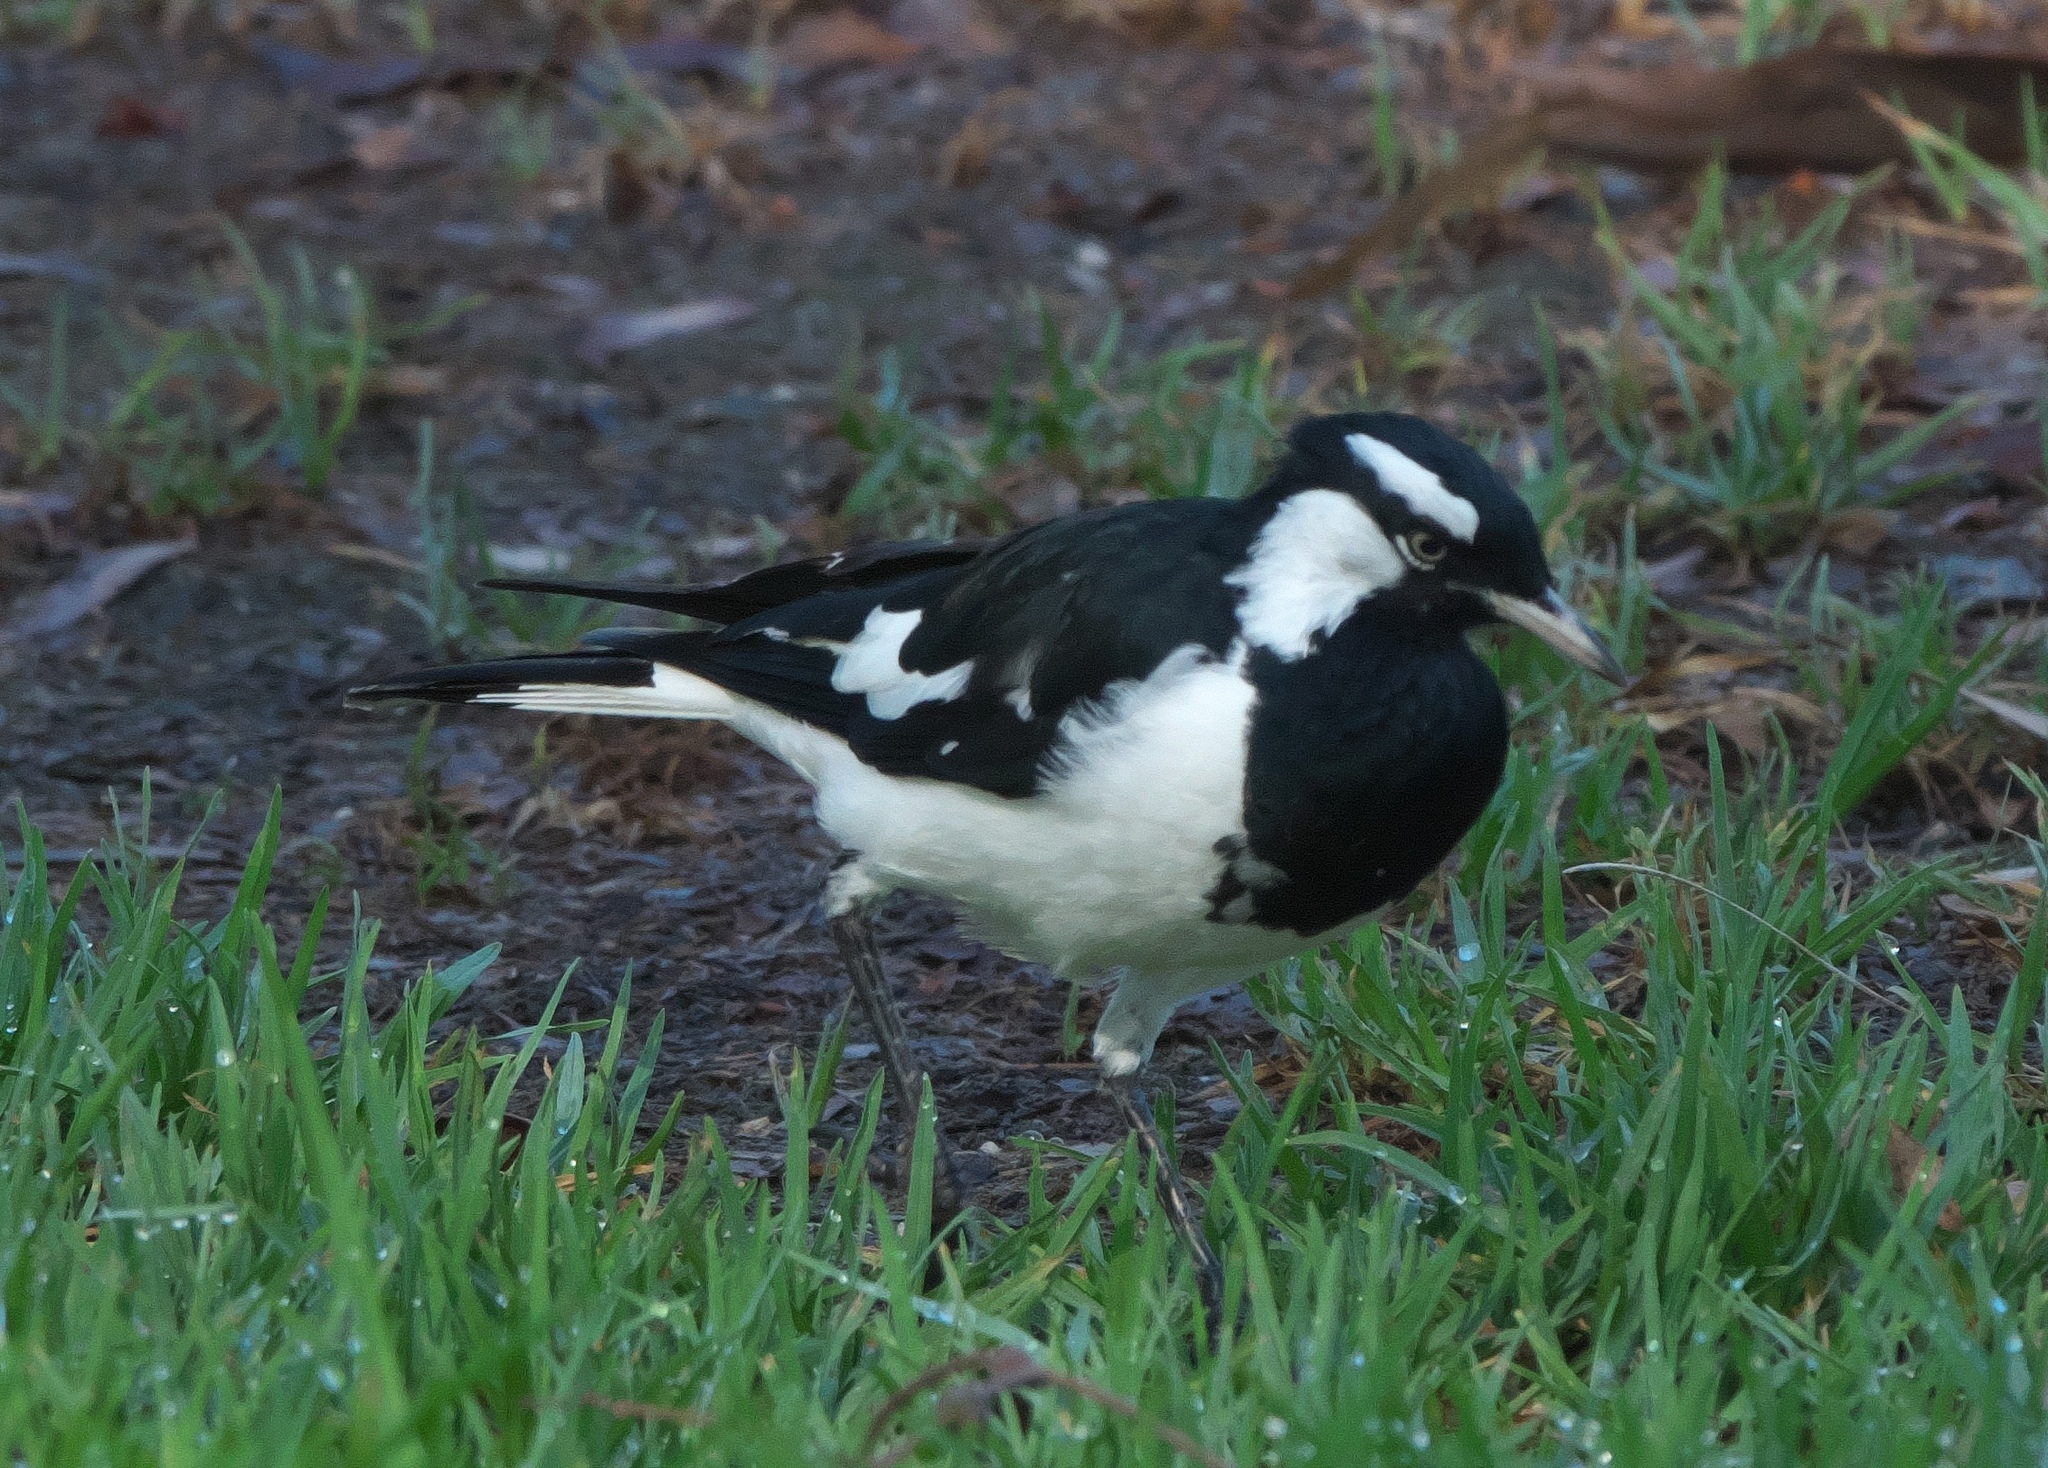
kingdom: Animalia
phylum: Chordata
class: Aves
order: Passeriformes
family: Monarchidae
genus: Grallina
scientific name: Grallina cyanoleuca
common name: Magpie-lark
